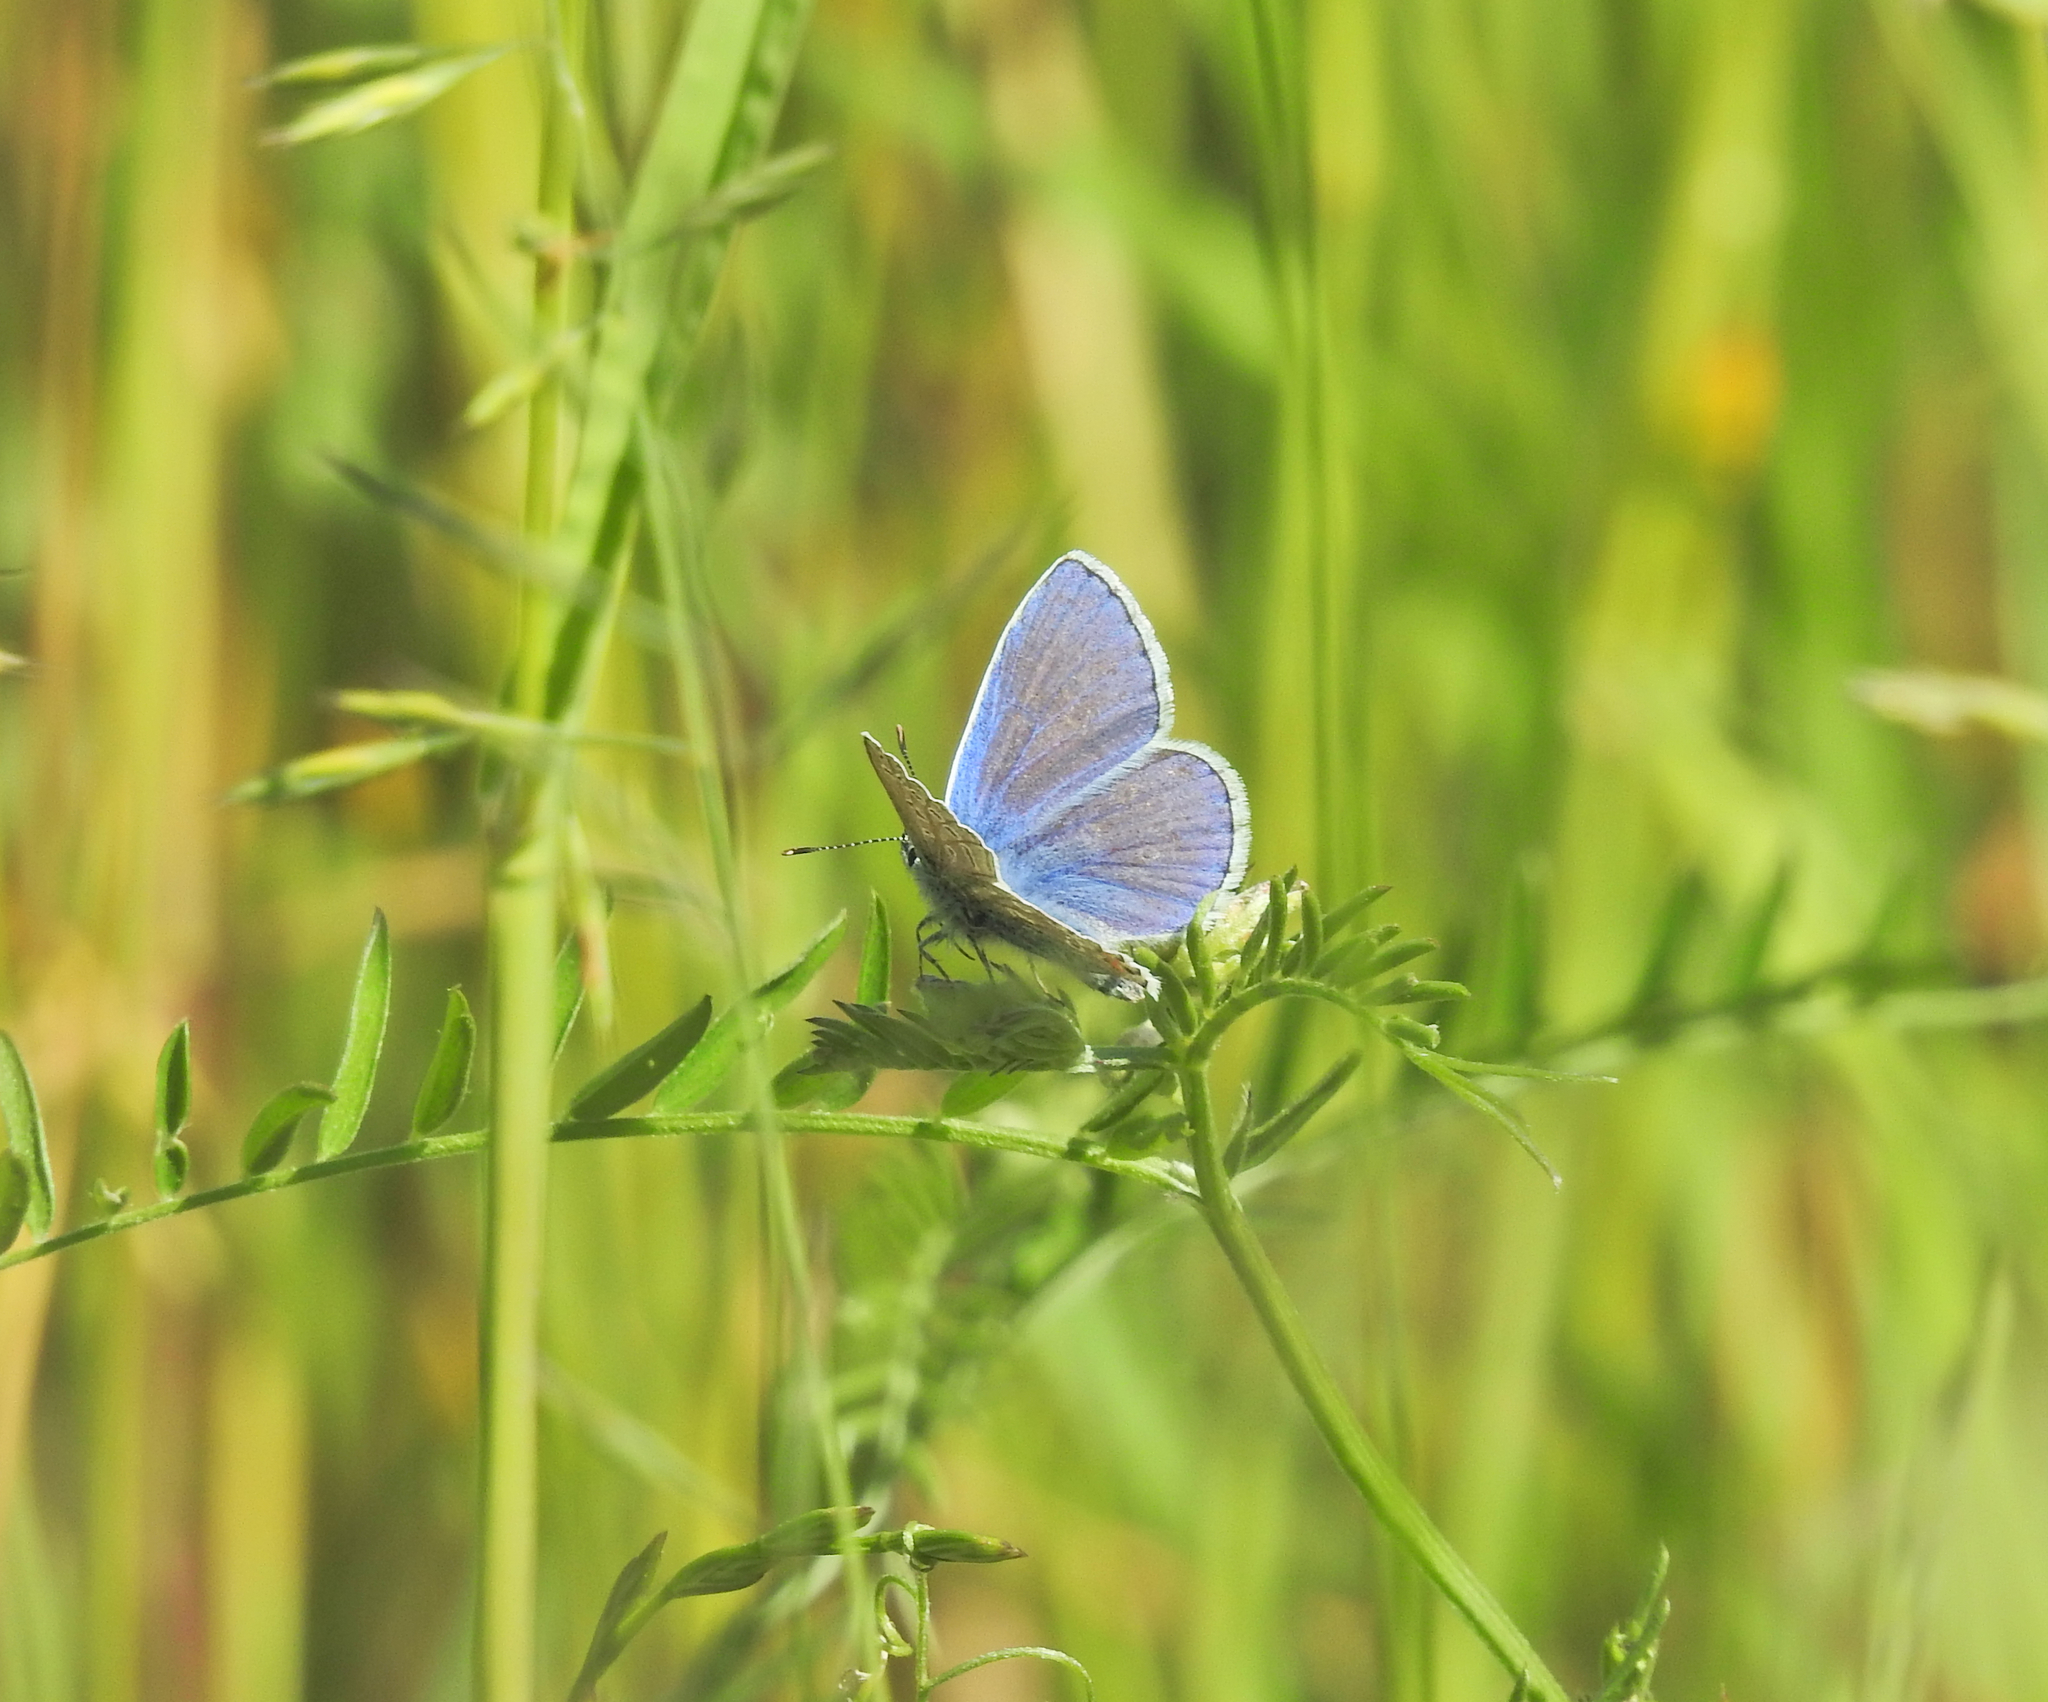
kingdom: Animalia
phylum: Arthropoda
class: Insecta
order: Lepidoptera
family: Lycaenidae
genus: Polyommatus
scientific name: Polyommatus icarus
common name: Common blue
